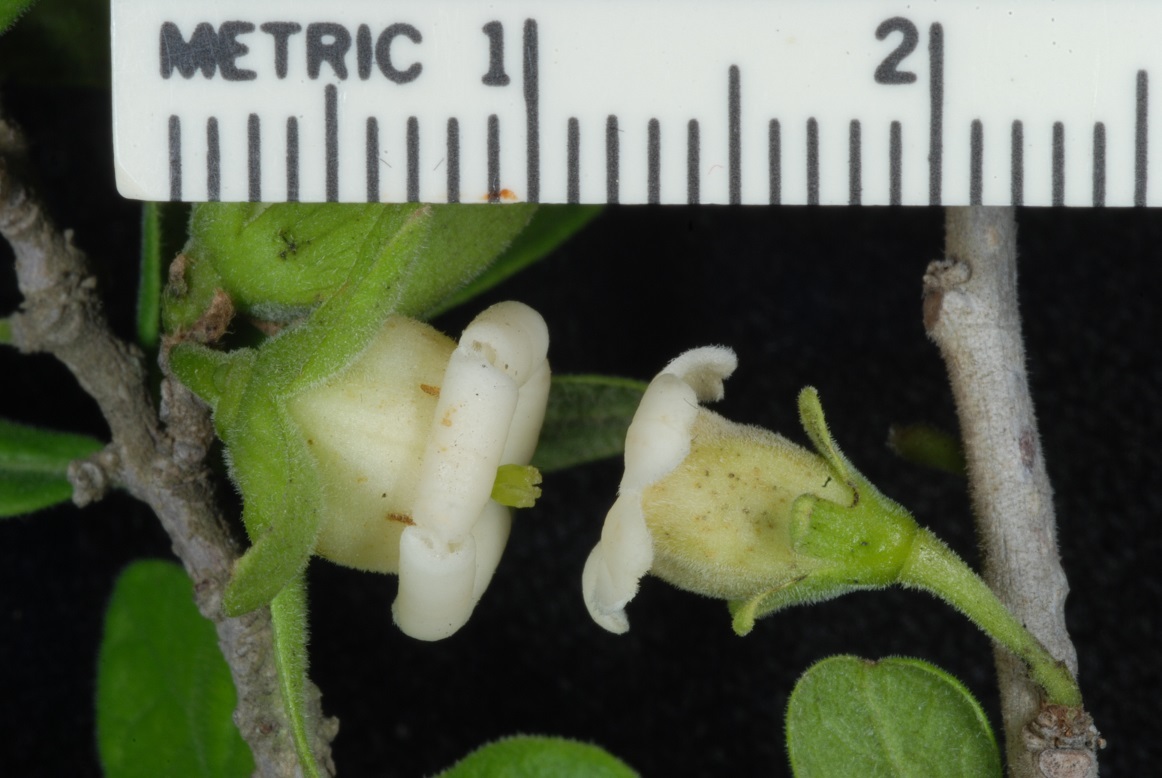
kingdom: Plantae
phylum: Tracheophyta
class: Magnoliopsida
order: Ericales
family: Ebenaceae
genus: Diospyros
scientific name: Diospyros texana
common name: Texas persimmon
